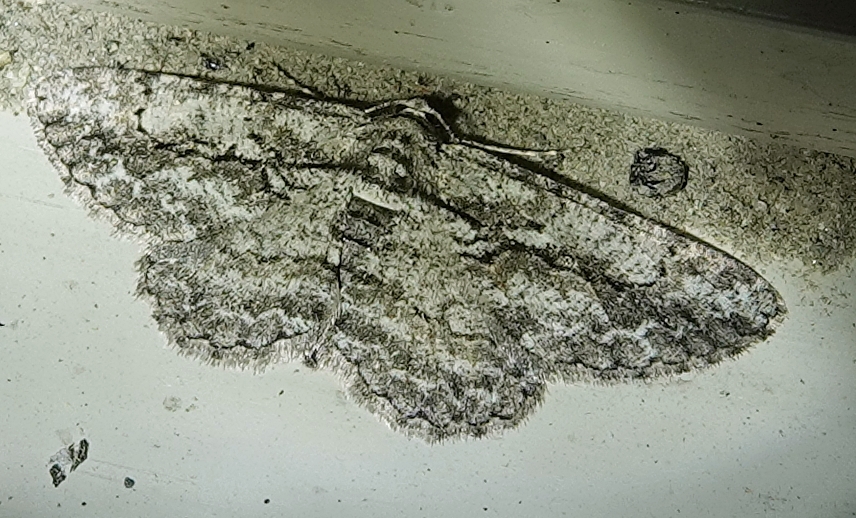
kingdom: Animalia
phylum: Arthropoda
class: Insecta
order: Lepidoptera
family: Geometridae
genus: Anavitrinella
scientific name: Anavitrinella pampinaria
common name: Common gray
